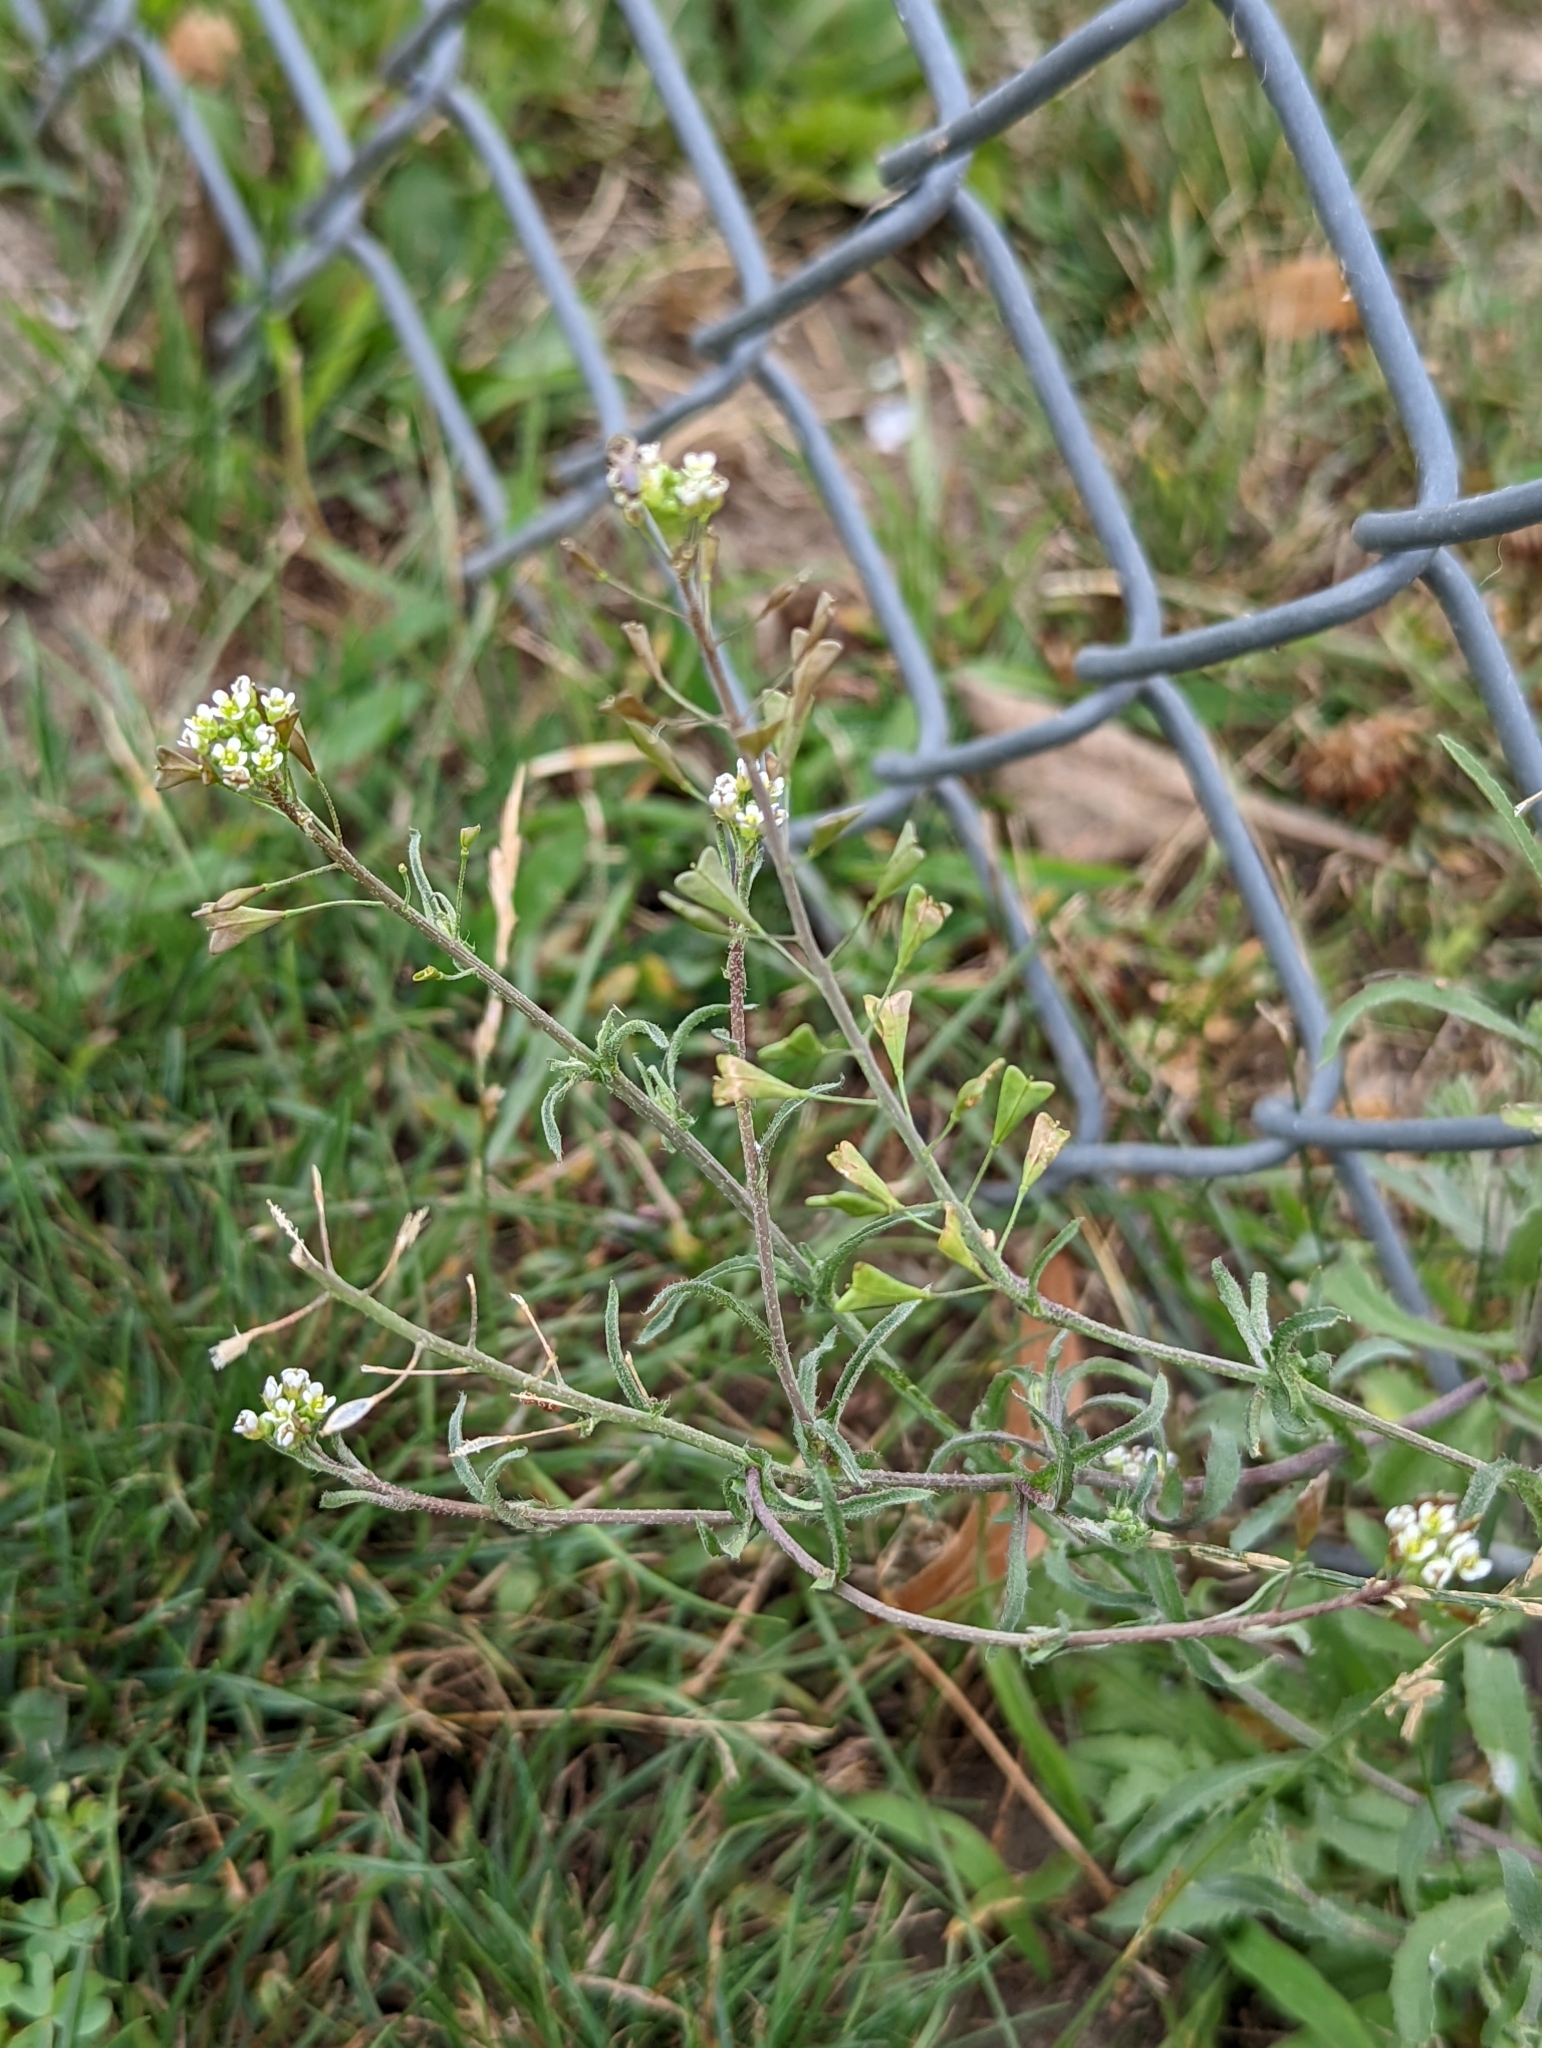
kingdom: Plantae
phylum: Tracheophyta
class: Magnoliopsida
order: Brassicales
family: Brassicaceae
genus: Capsella
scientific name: Capsella bursa-pastoris
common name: Shepherd's purse
